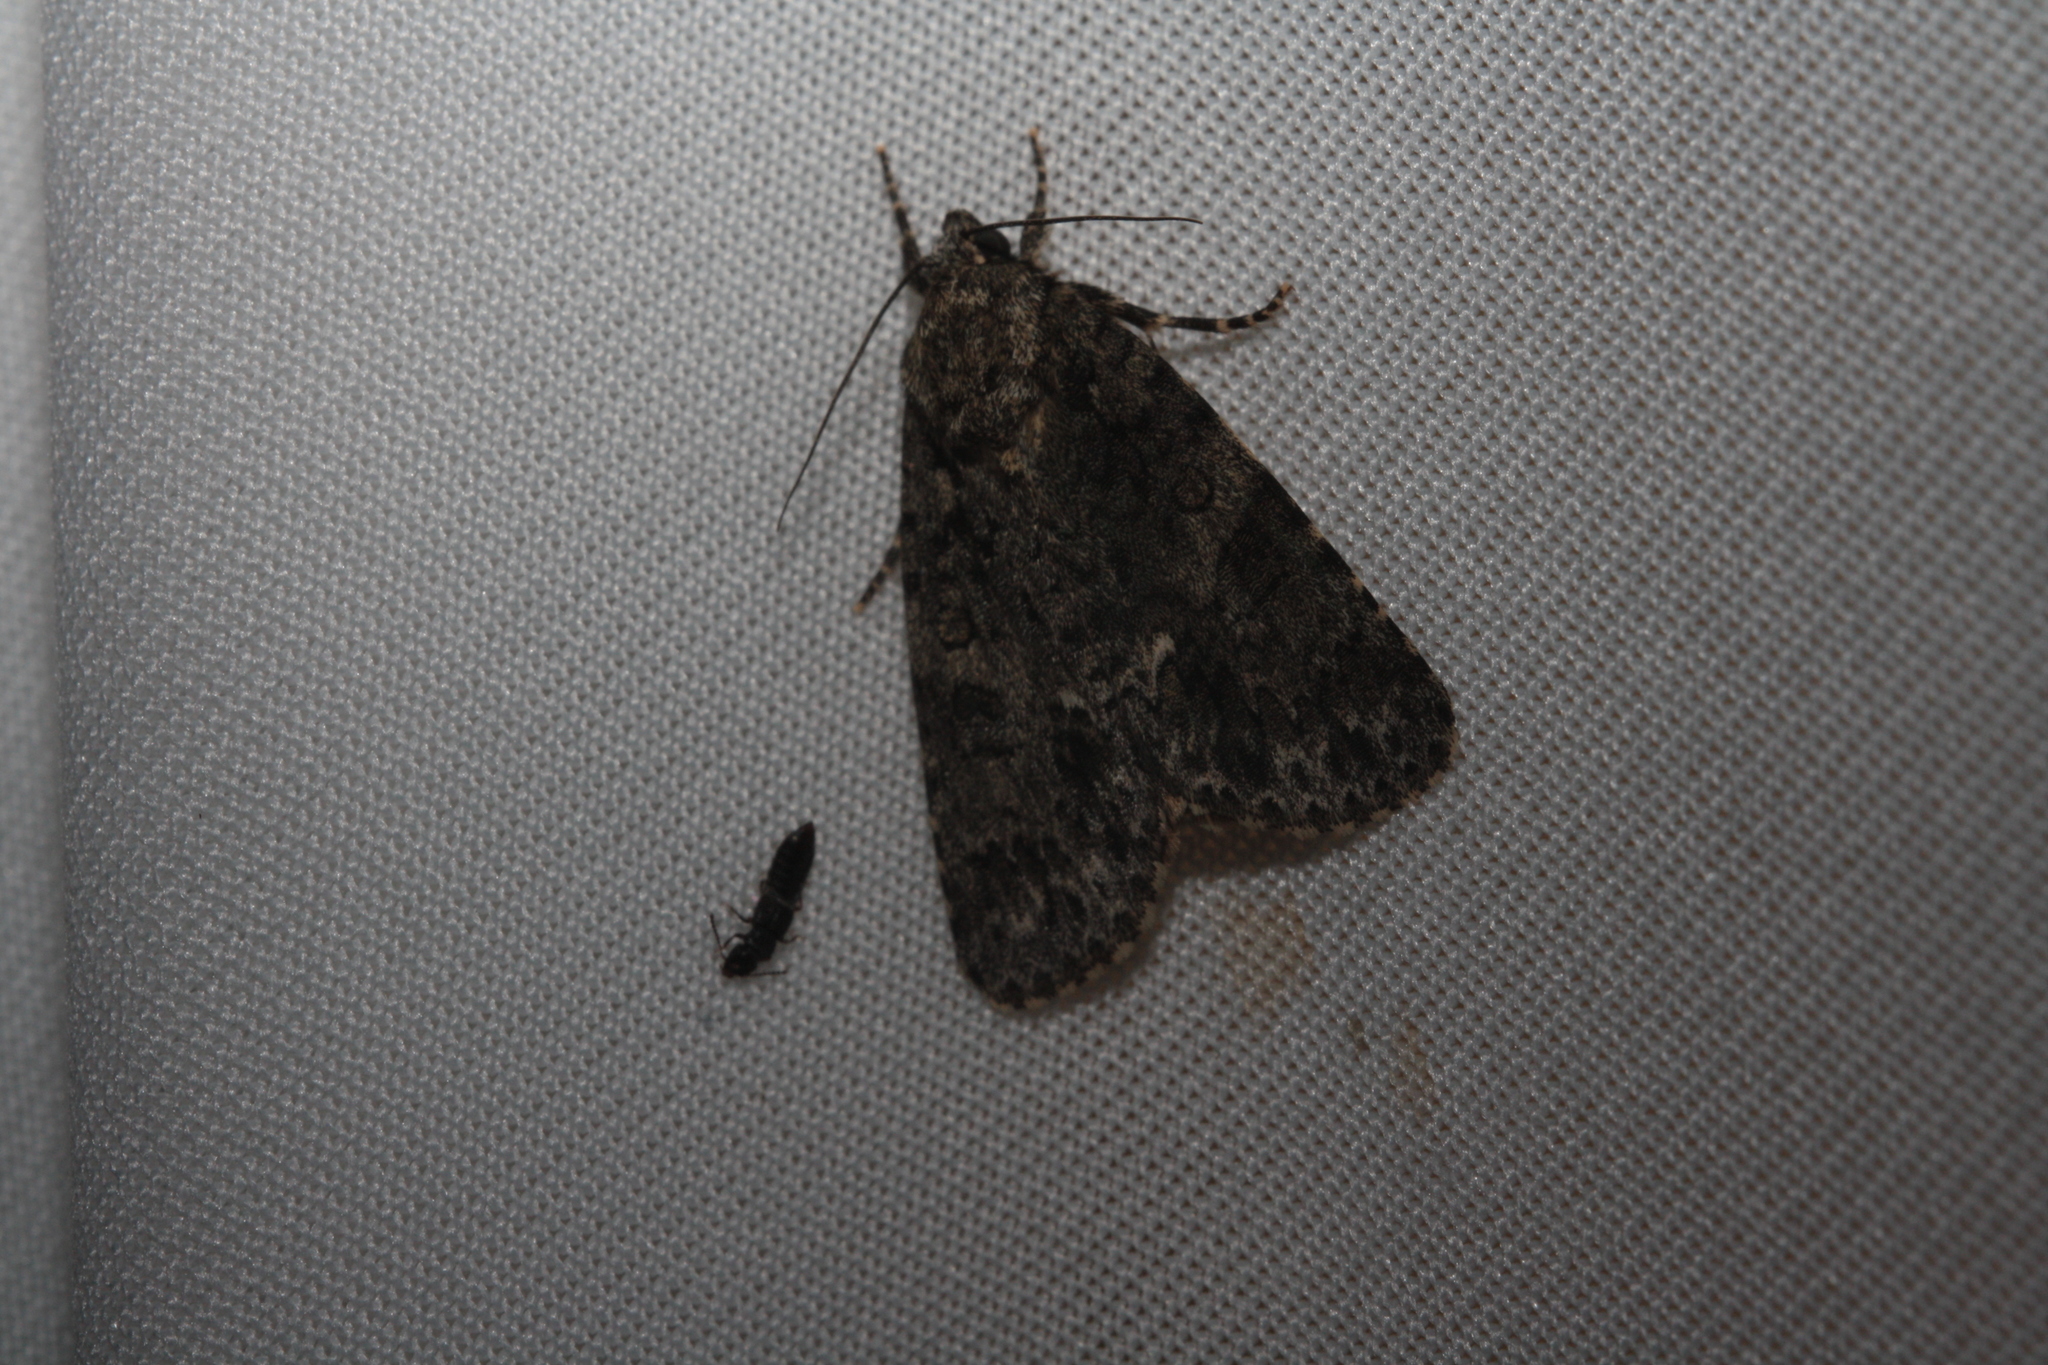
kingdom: Animalia
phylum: Arthropoda
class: Insecta
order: Lepidoptera
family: Noctuidae
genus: Acronicta
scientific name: Acronicta rumicis
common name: Knot grass
